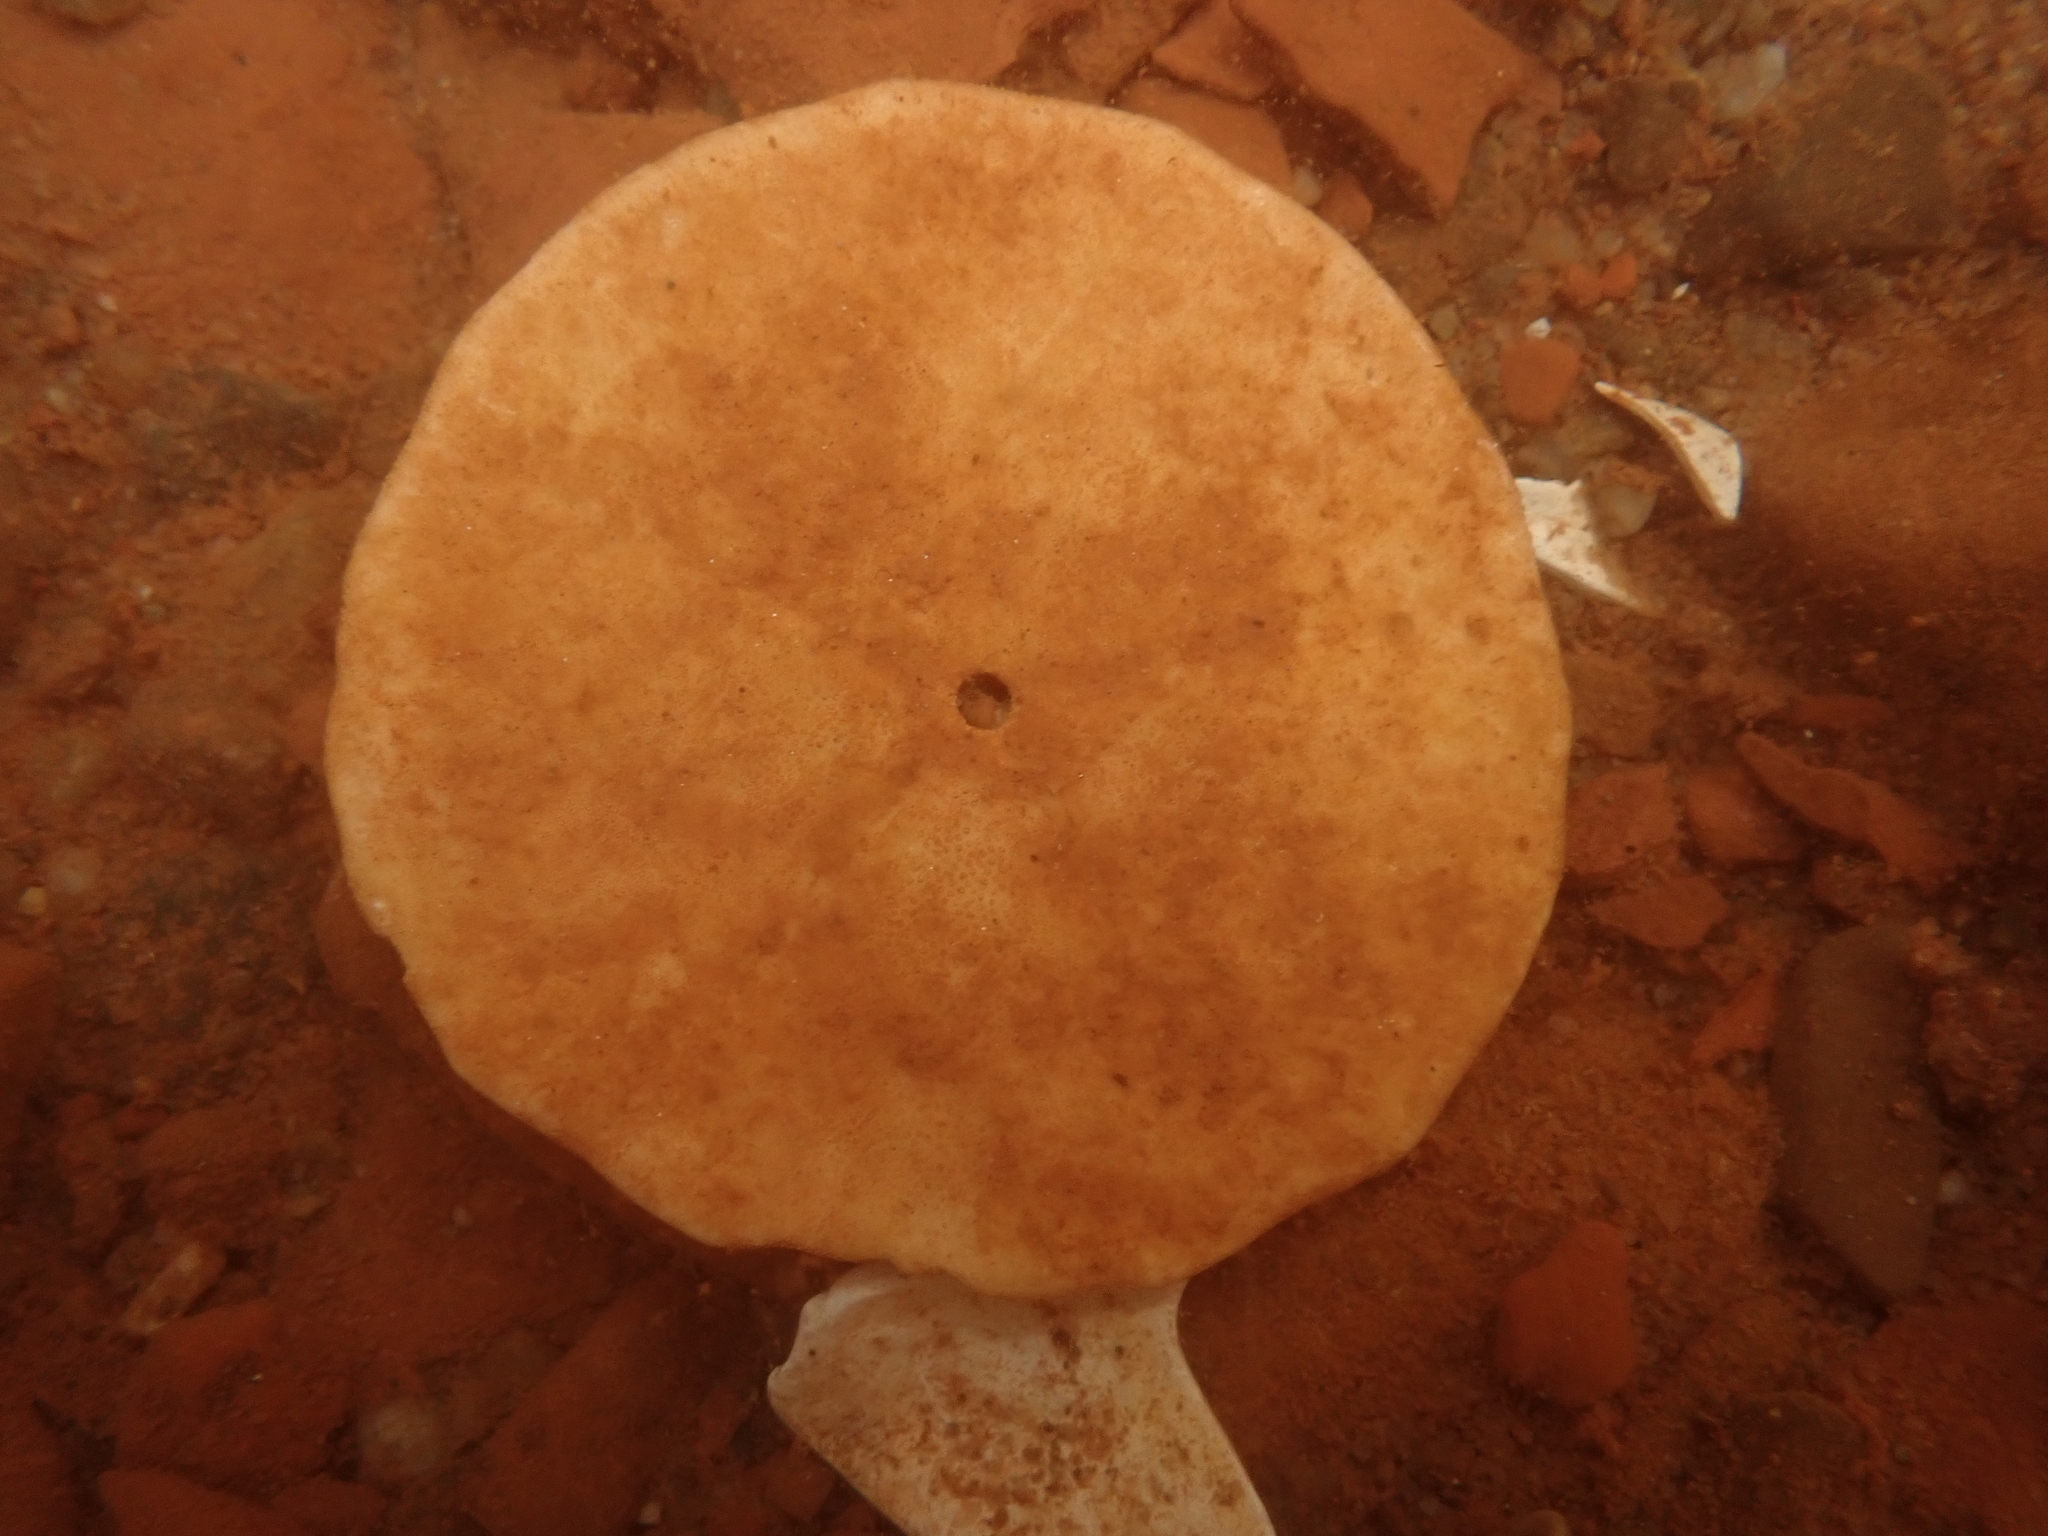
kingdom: Animalia
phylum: Echinodermata
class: Echinoidea
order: Echinolampadacea
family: Echinarachniidae
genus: Echinarachnius
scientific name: Echinarachnius parma
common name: Common sand dollar
